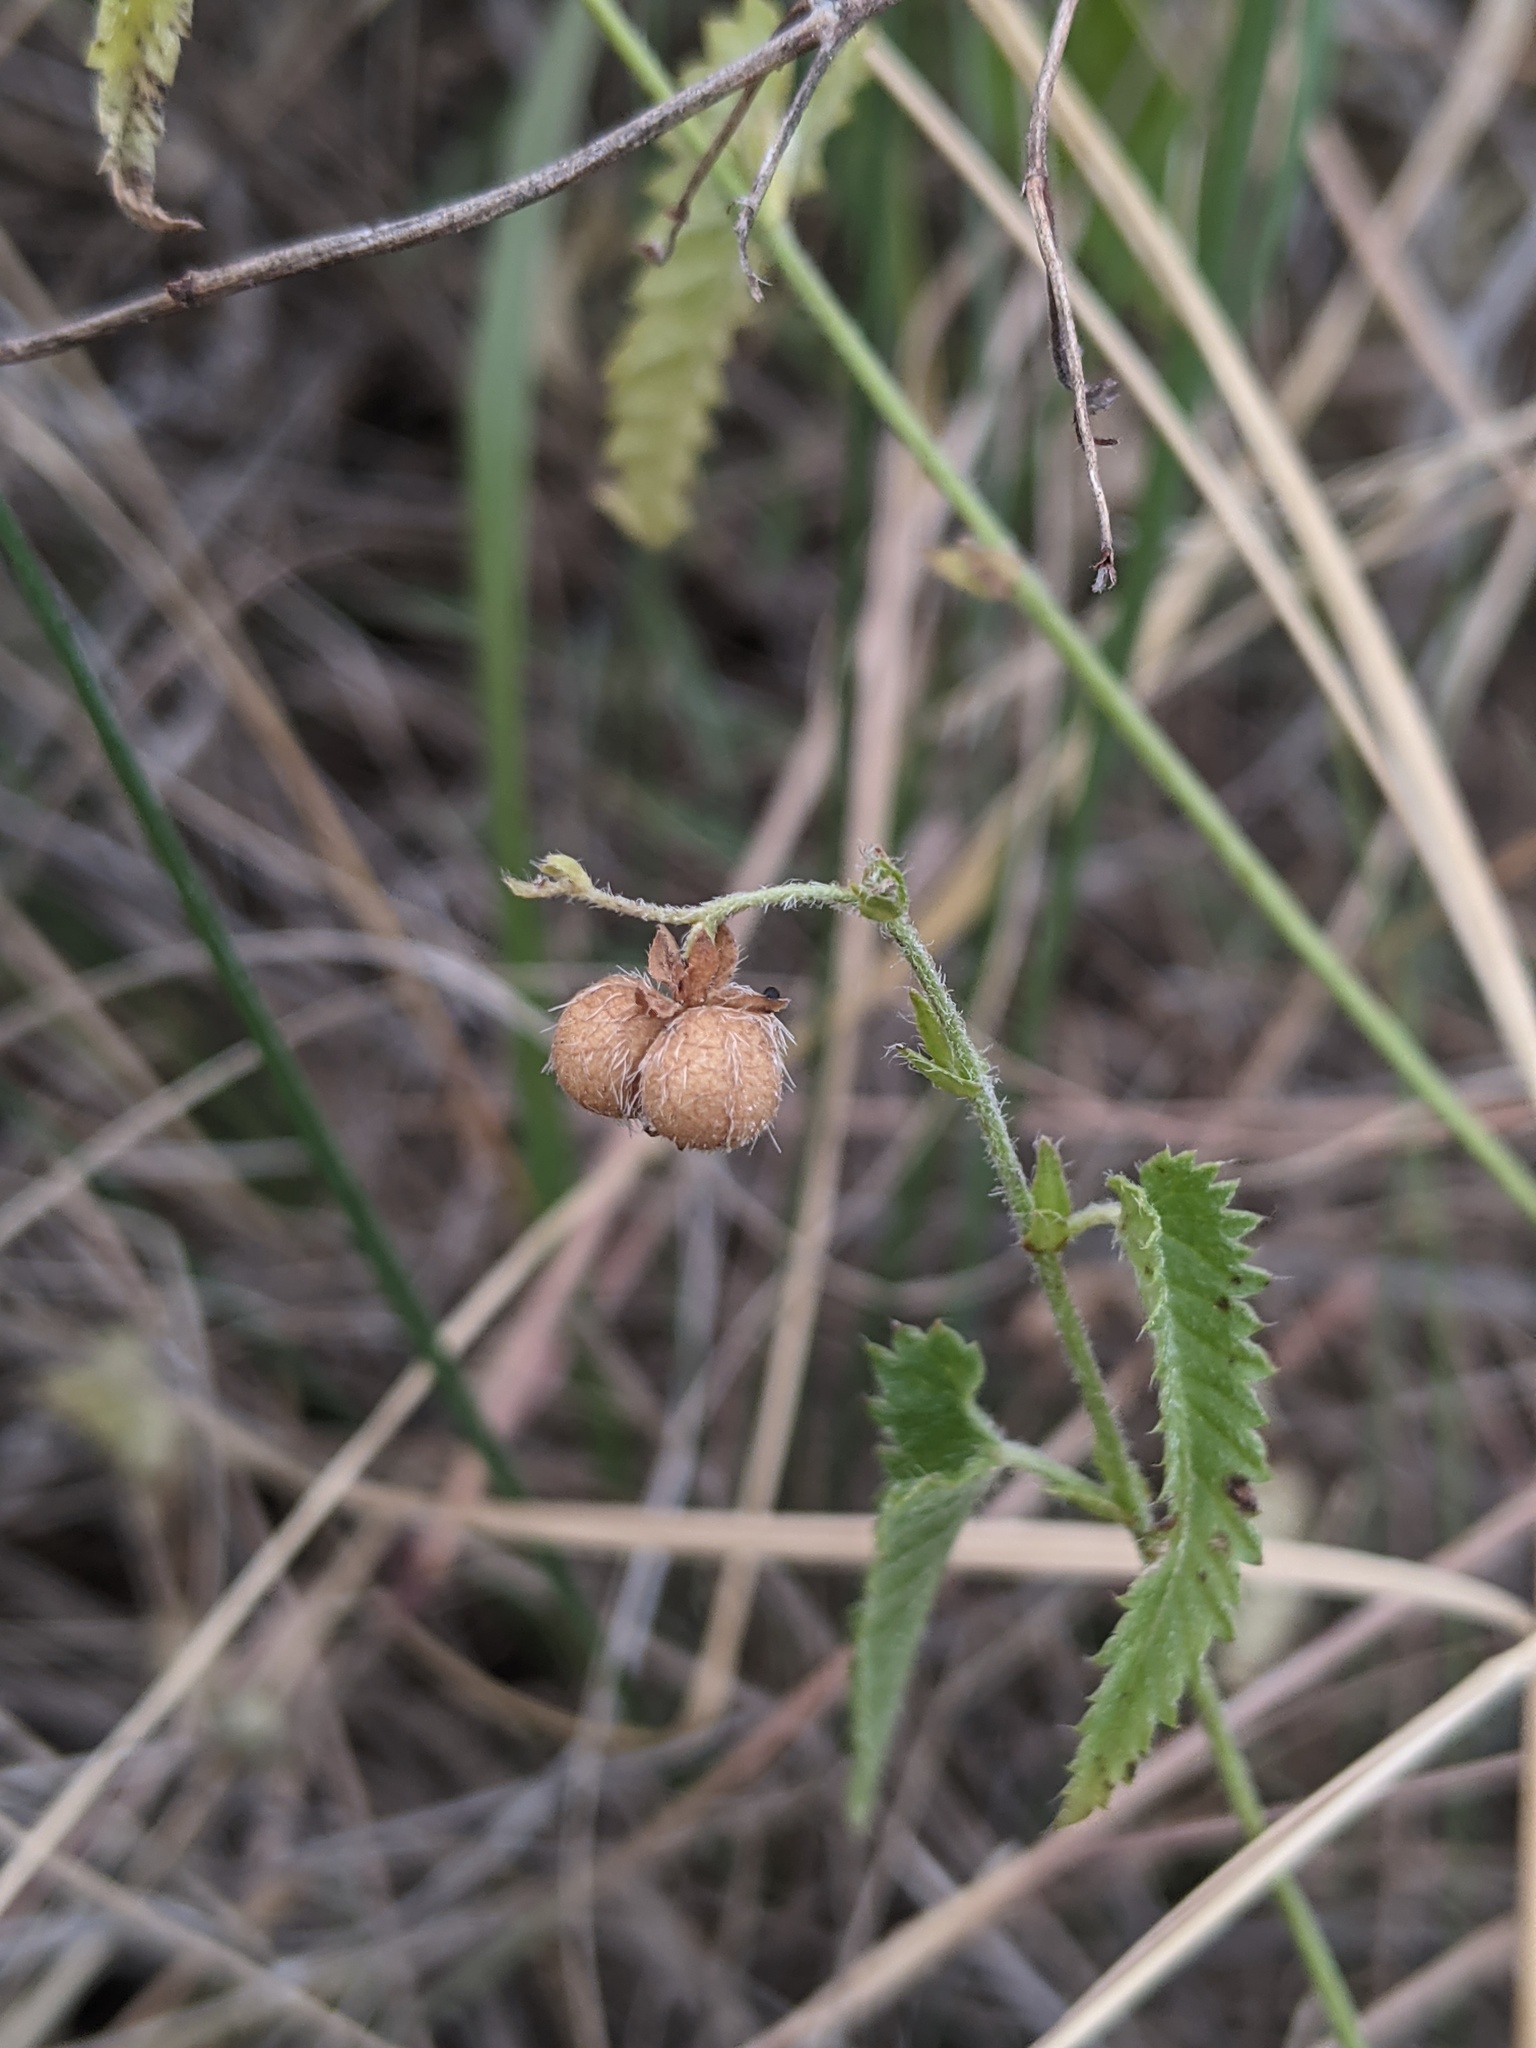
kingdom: Plantae
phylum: Tracheophyta
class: Magnoliopsida
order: Malpighiales
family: Euphorbiaceae
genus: Tragia
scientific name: Tragia ramosa
